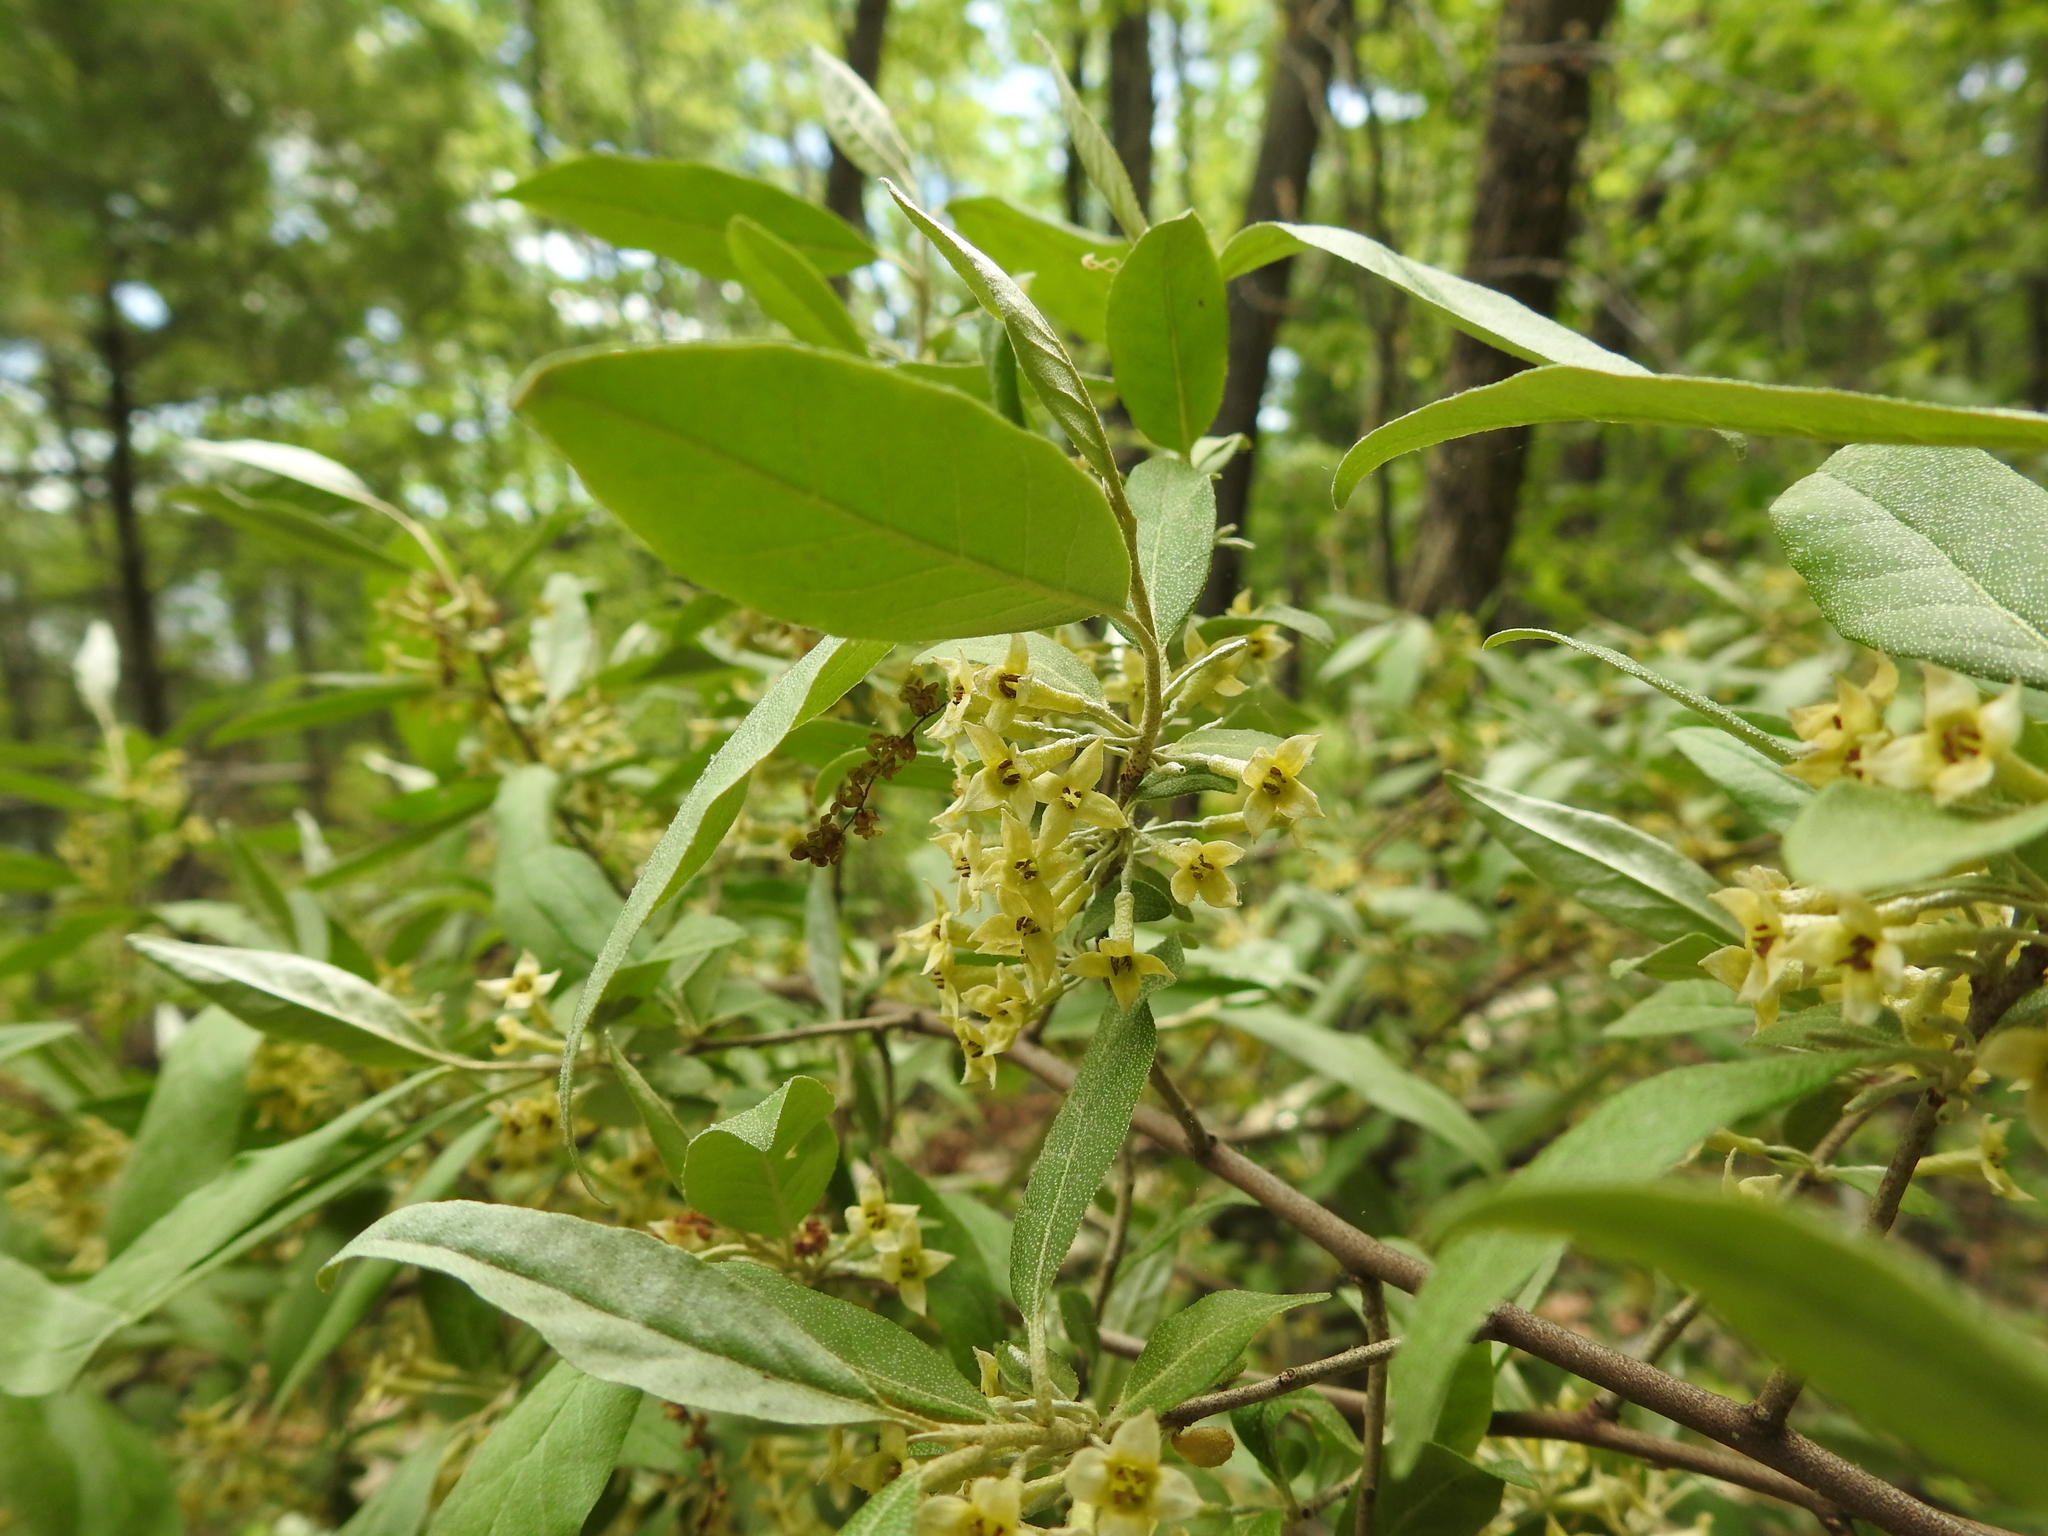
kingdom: Plantae
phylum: Tracheophyta
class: Magnoliopsida
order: Rosales
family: Elaeagnaceae
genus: Elaeagnus
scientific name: Elaeagnus umbellata
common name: Autumn olive
